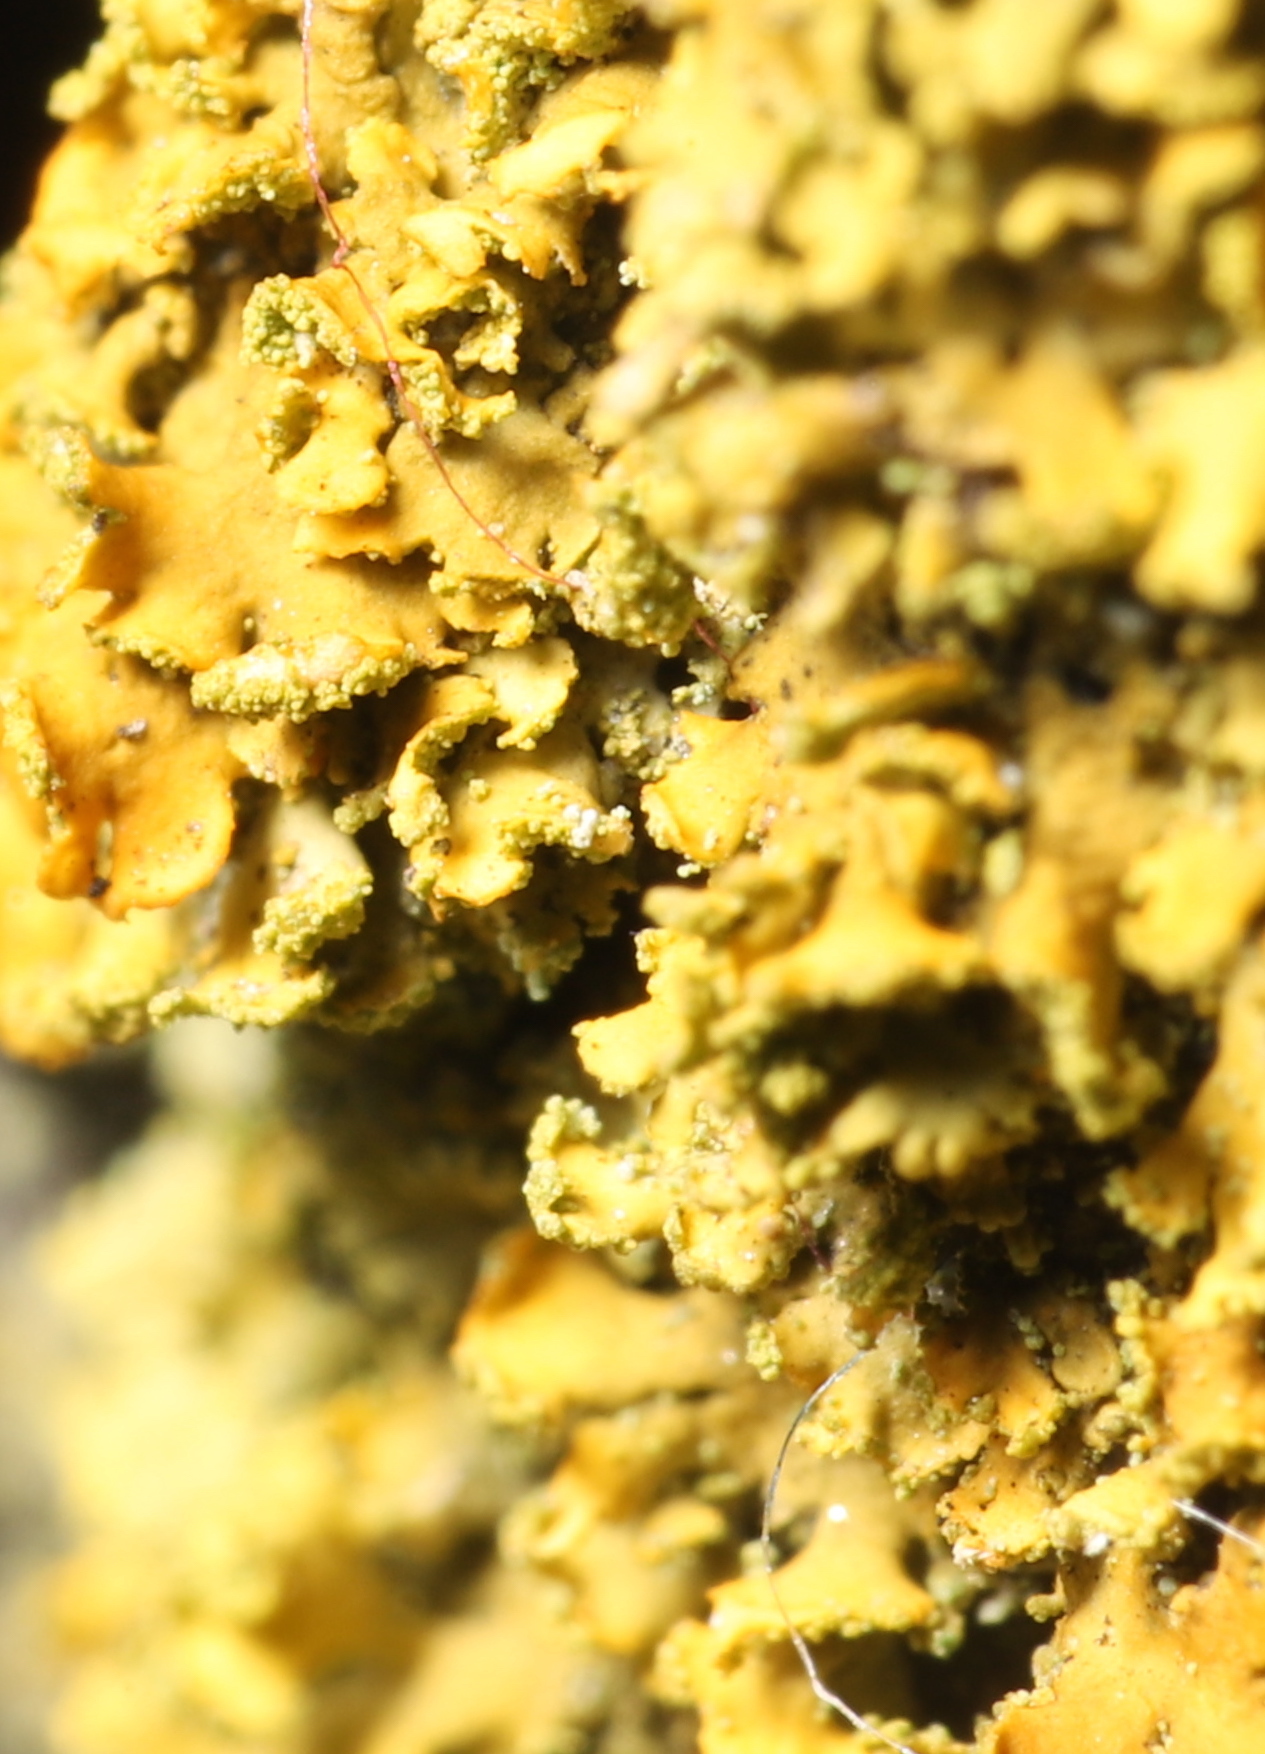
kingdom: Fungi
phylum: Ascomycota
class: Lecanoromycetes
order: Teloschistales
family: Teloschistaceae
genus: Gallowayella
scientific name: Gallowayella weberi
